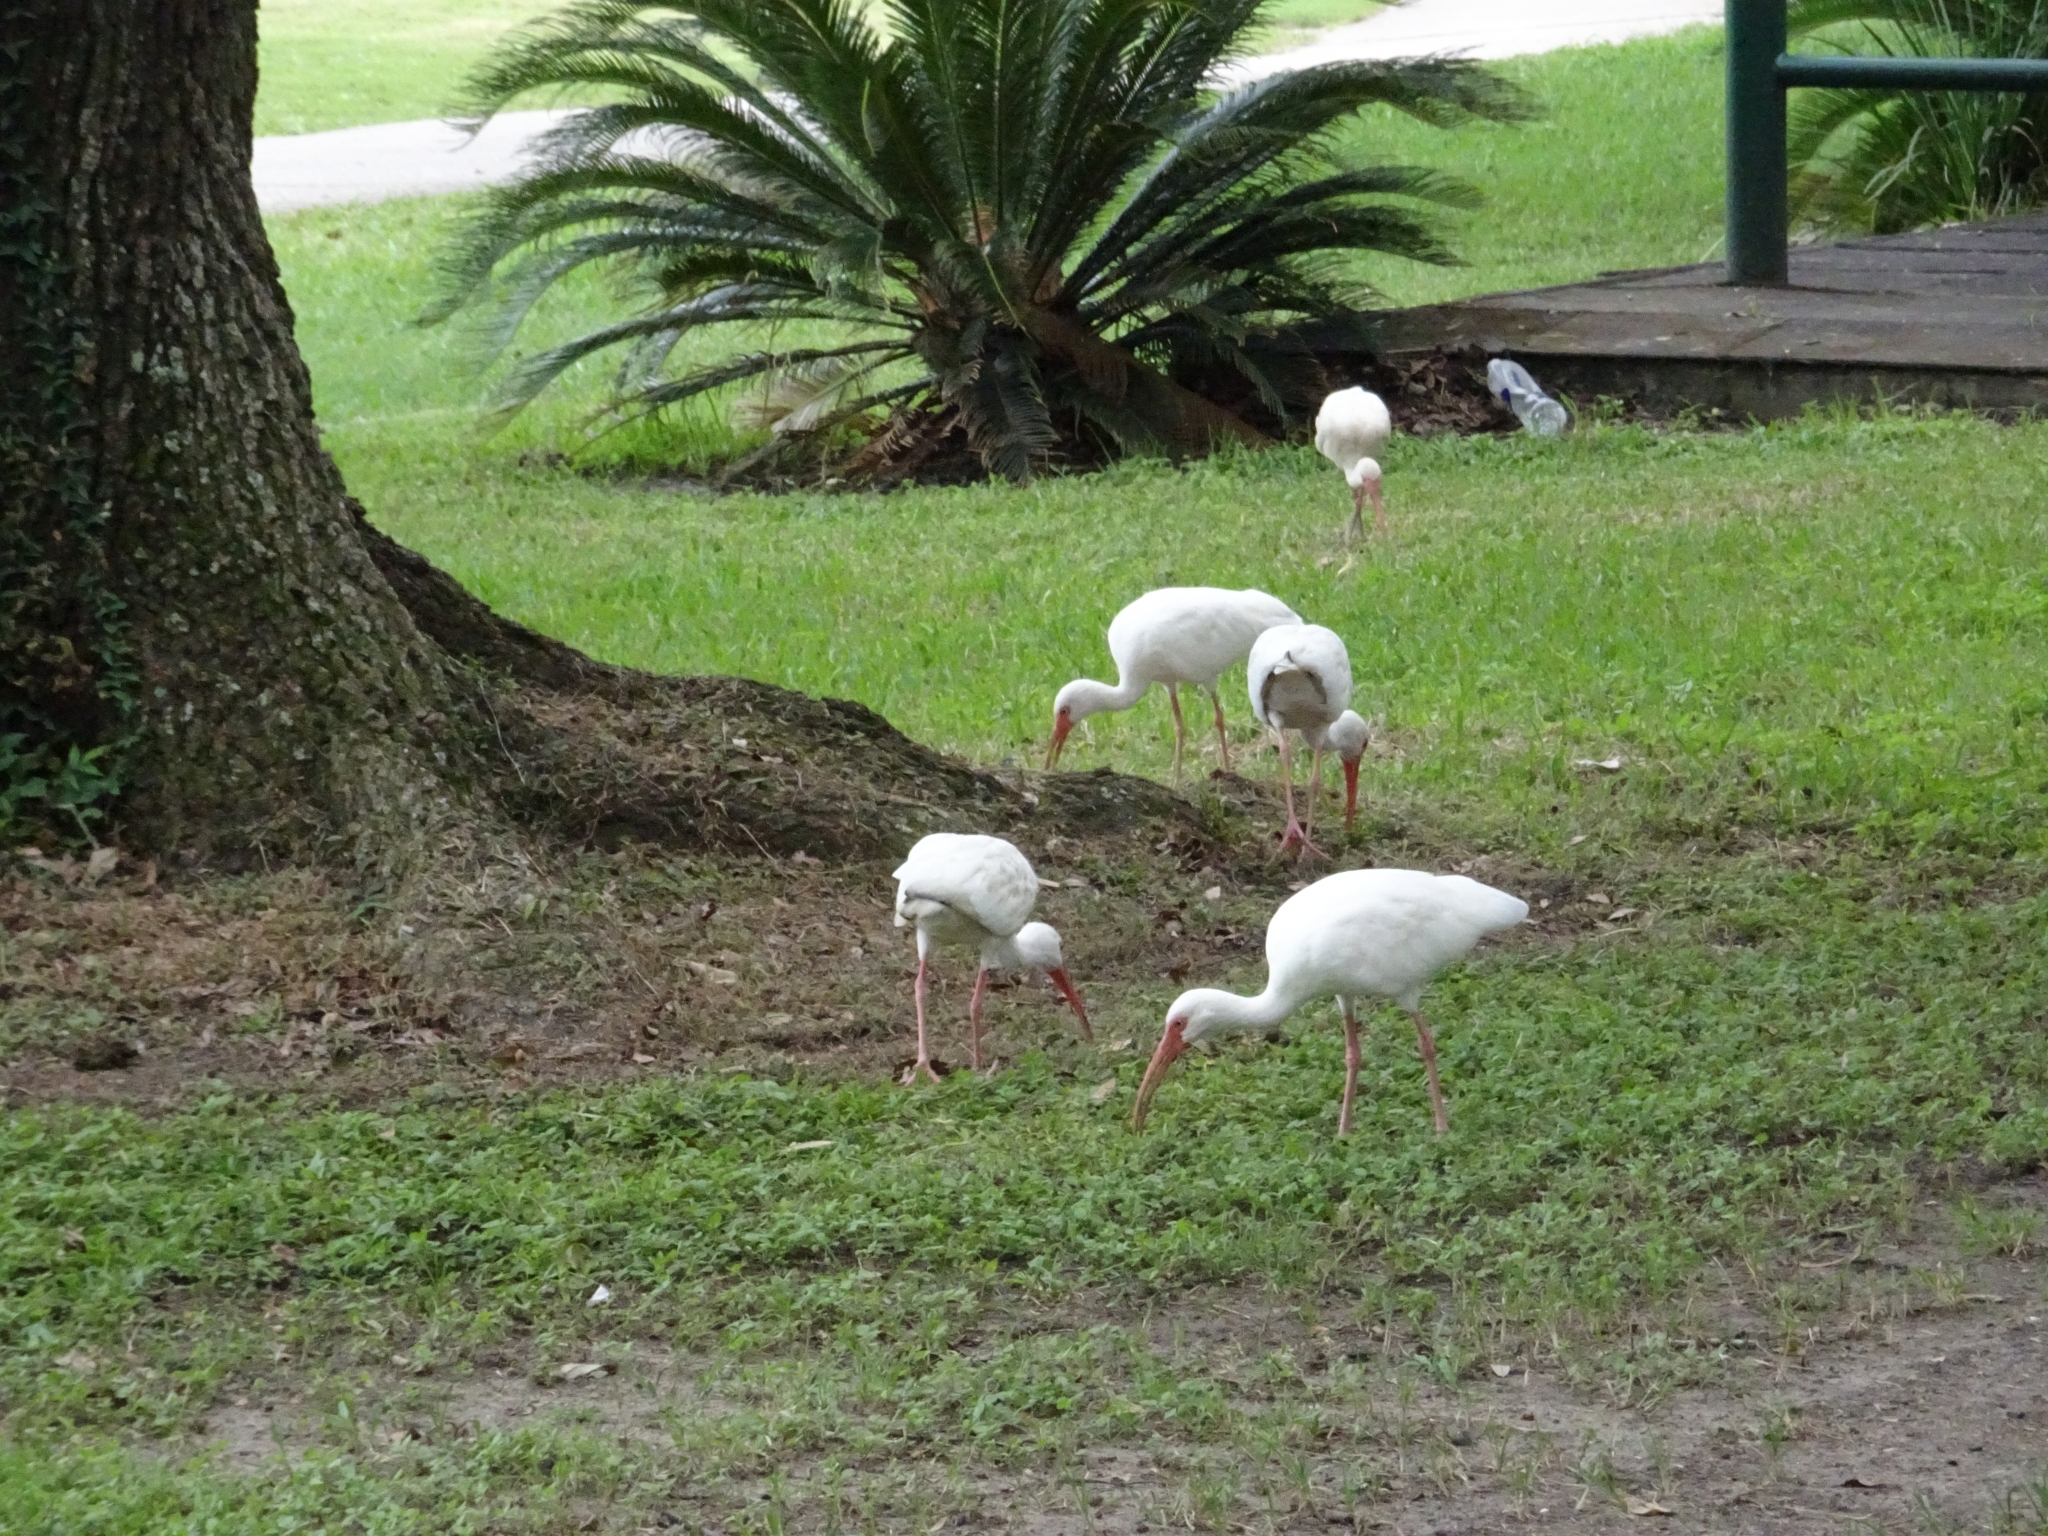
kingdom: Animalia
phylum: Chordata
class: Aves
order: Pelecaniformes
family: Threskiornithidae
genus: Eudocimus
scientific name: Eudocimus albus
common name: White ibis
